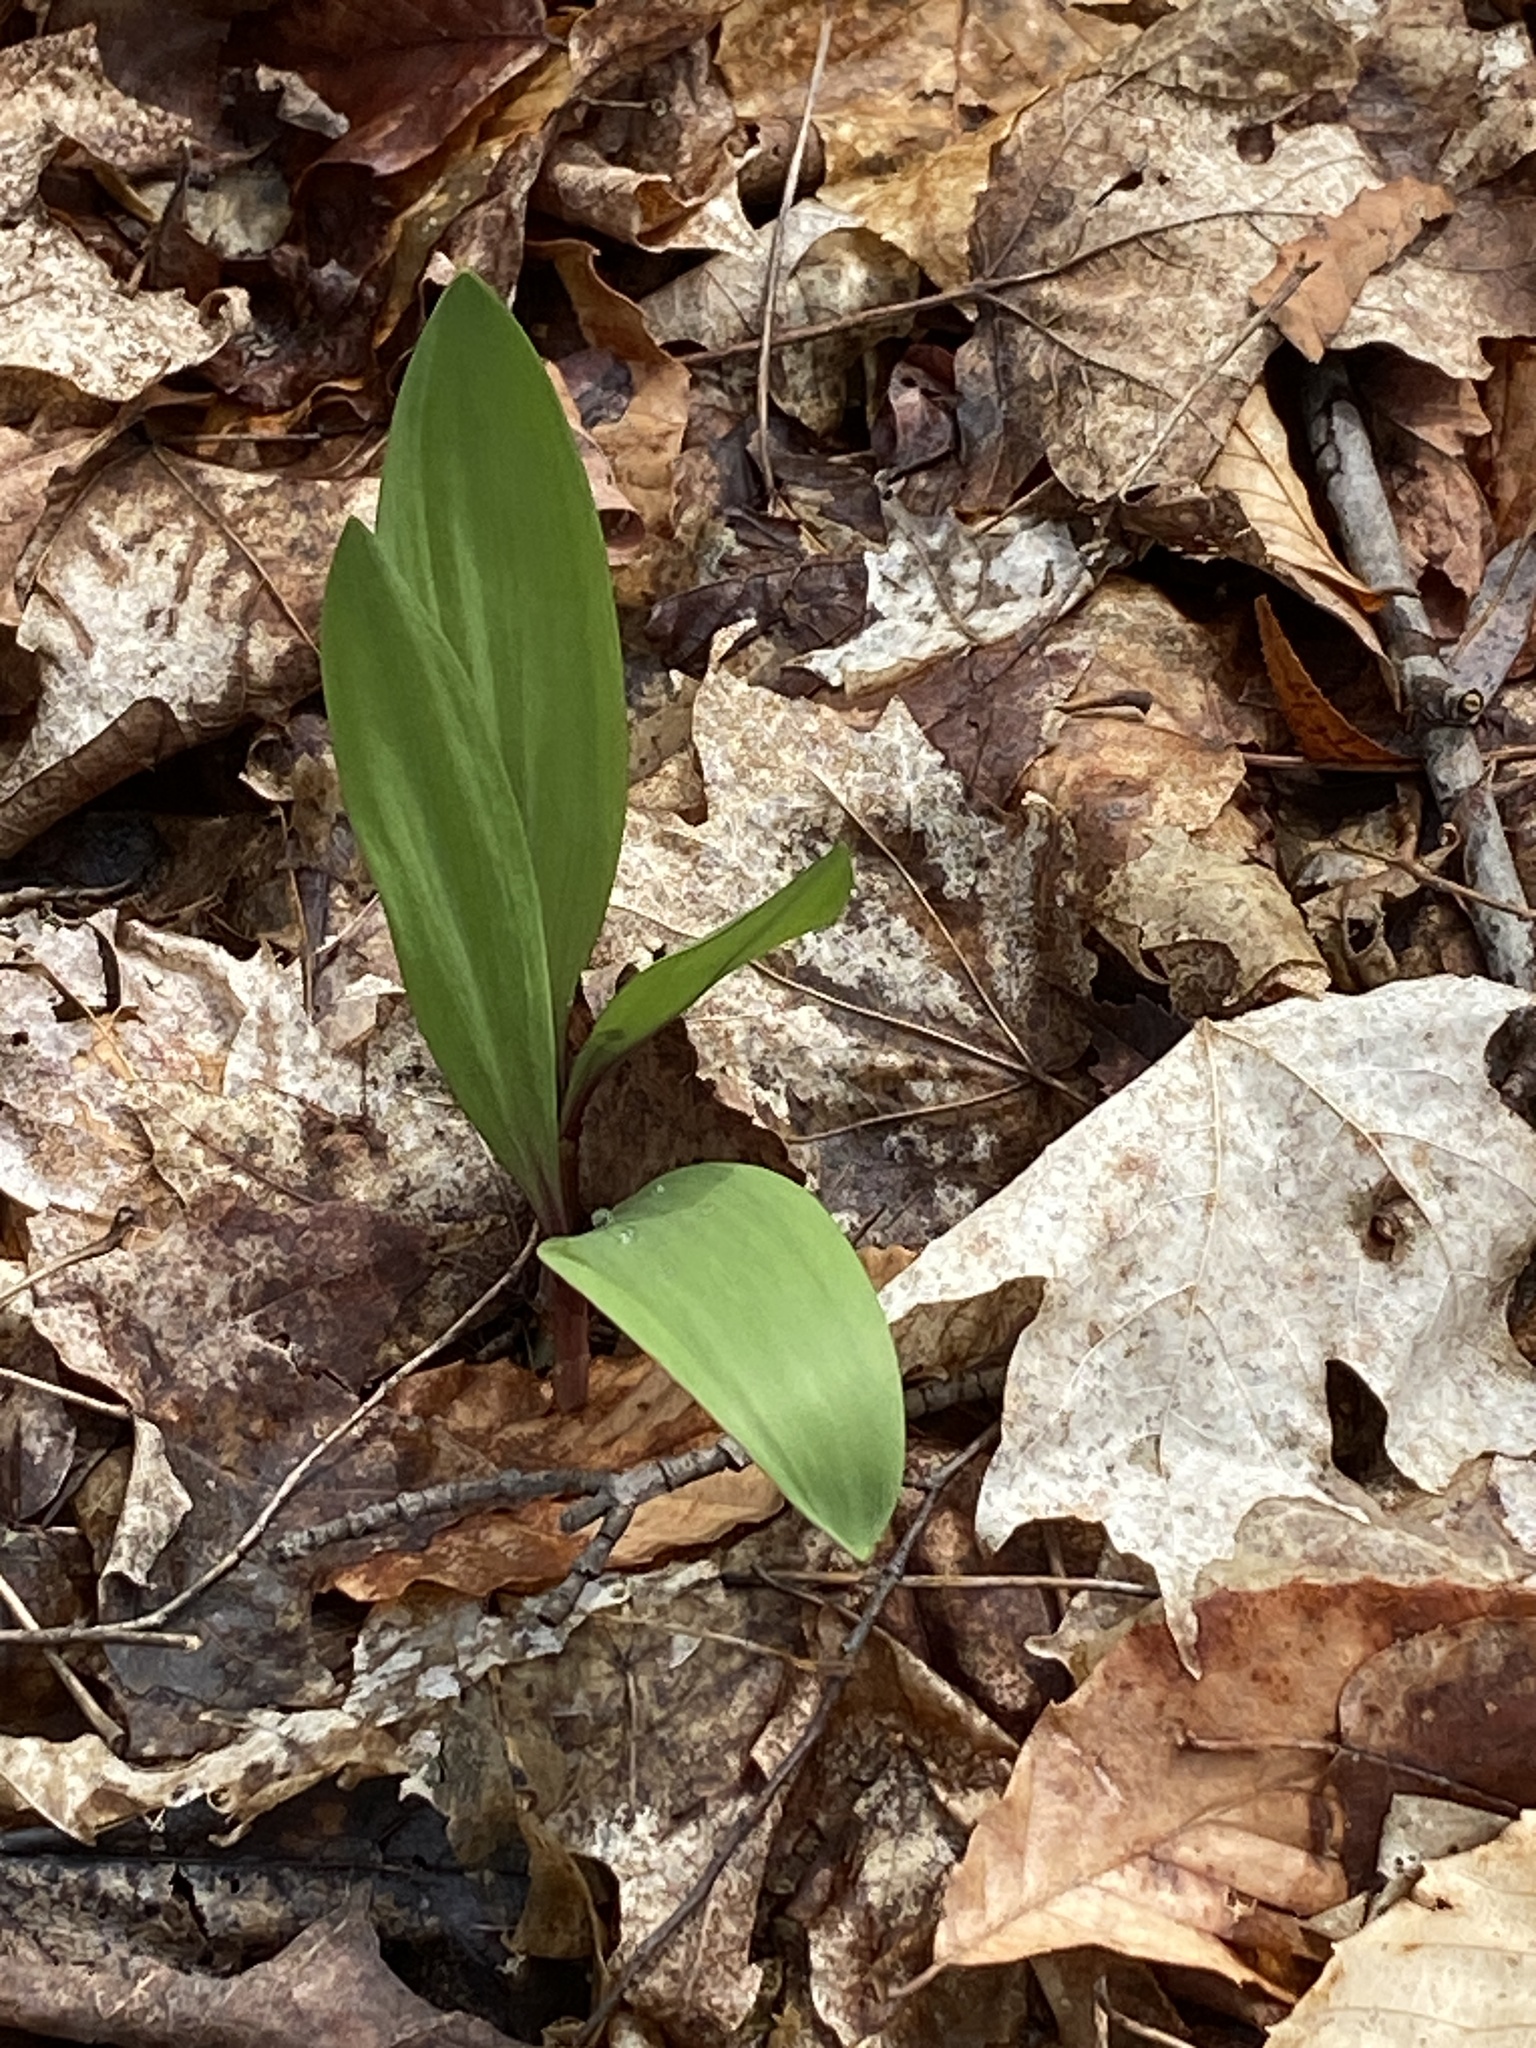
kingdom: Plantae
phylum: Tracheophyta
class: Liliopsida
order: Asparagales
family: Amaryllidaceae
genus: Allium
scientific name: Allium tricoccum
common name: Ramp
